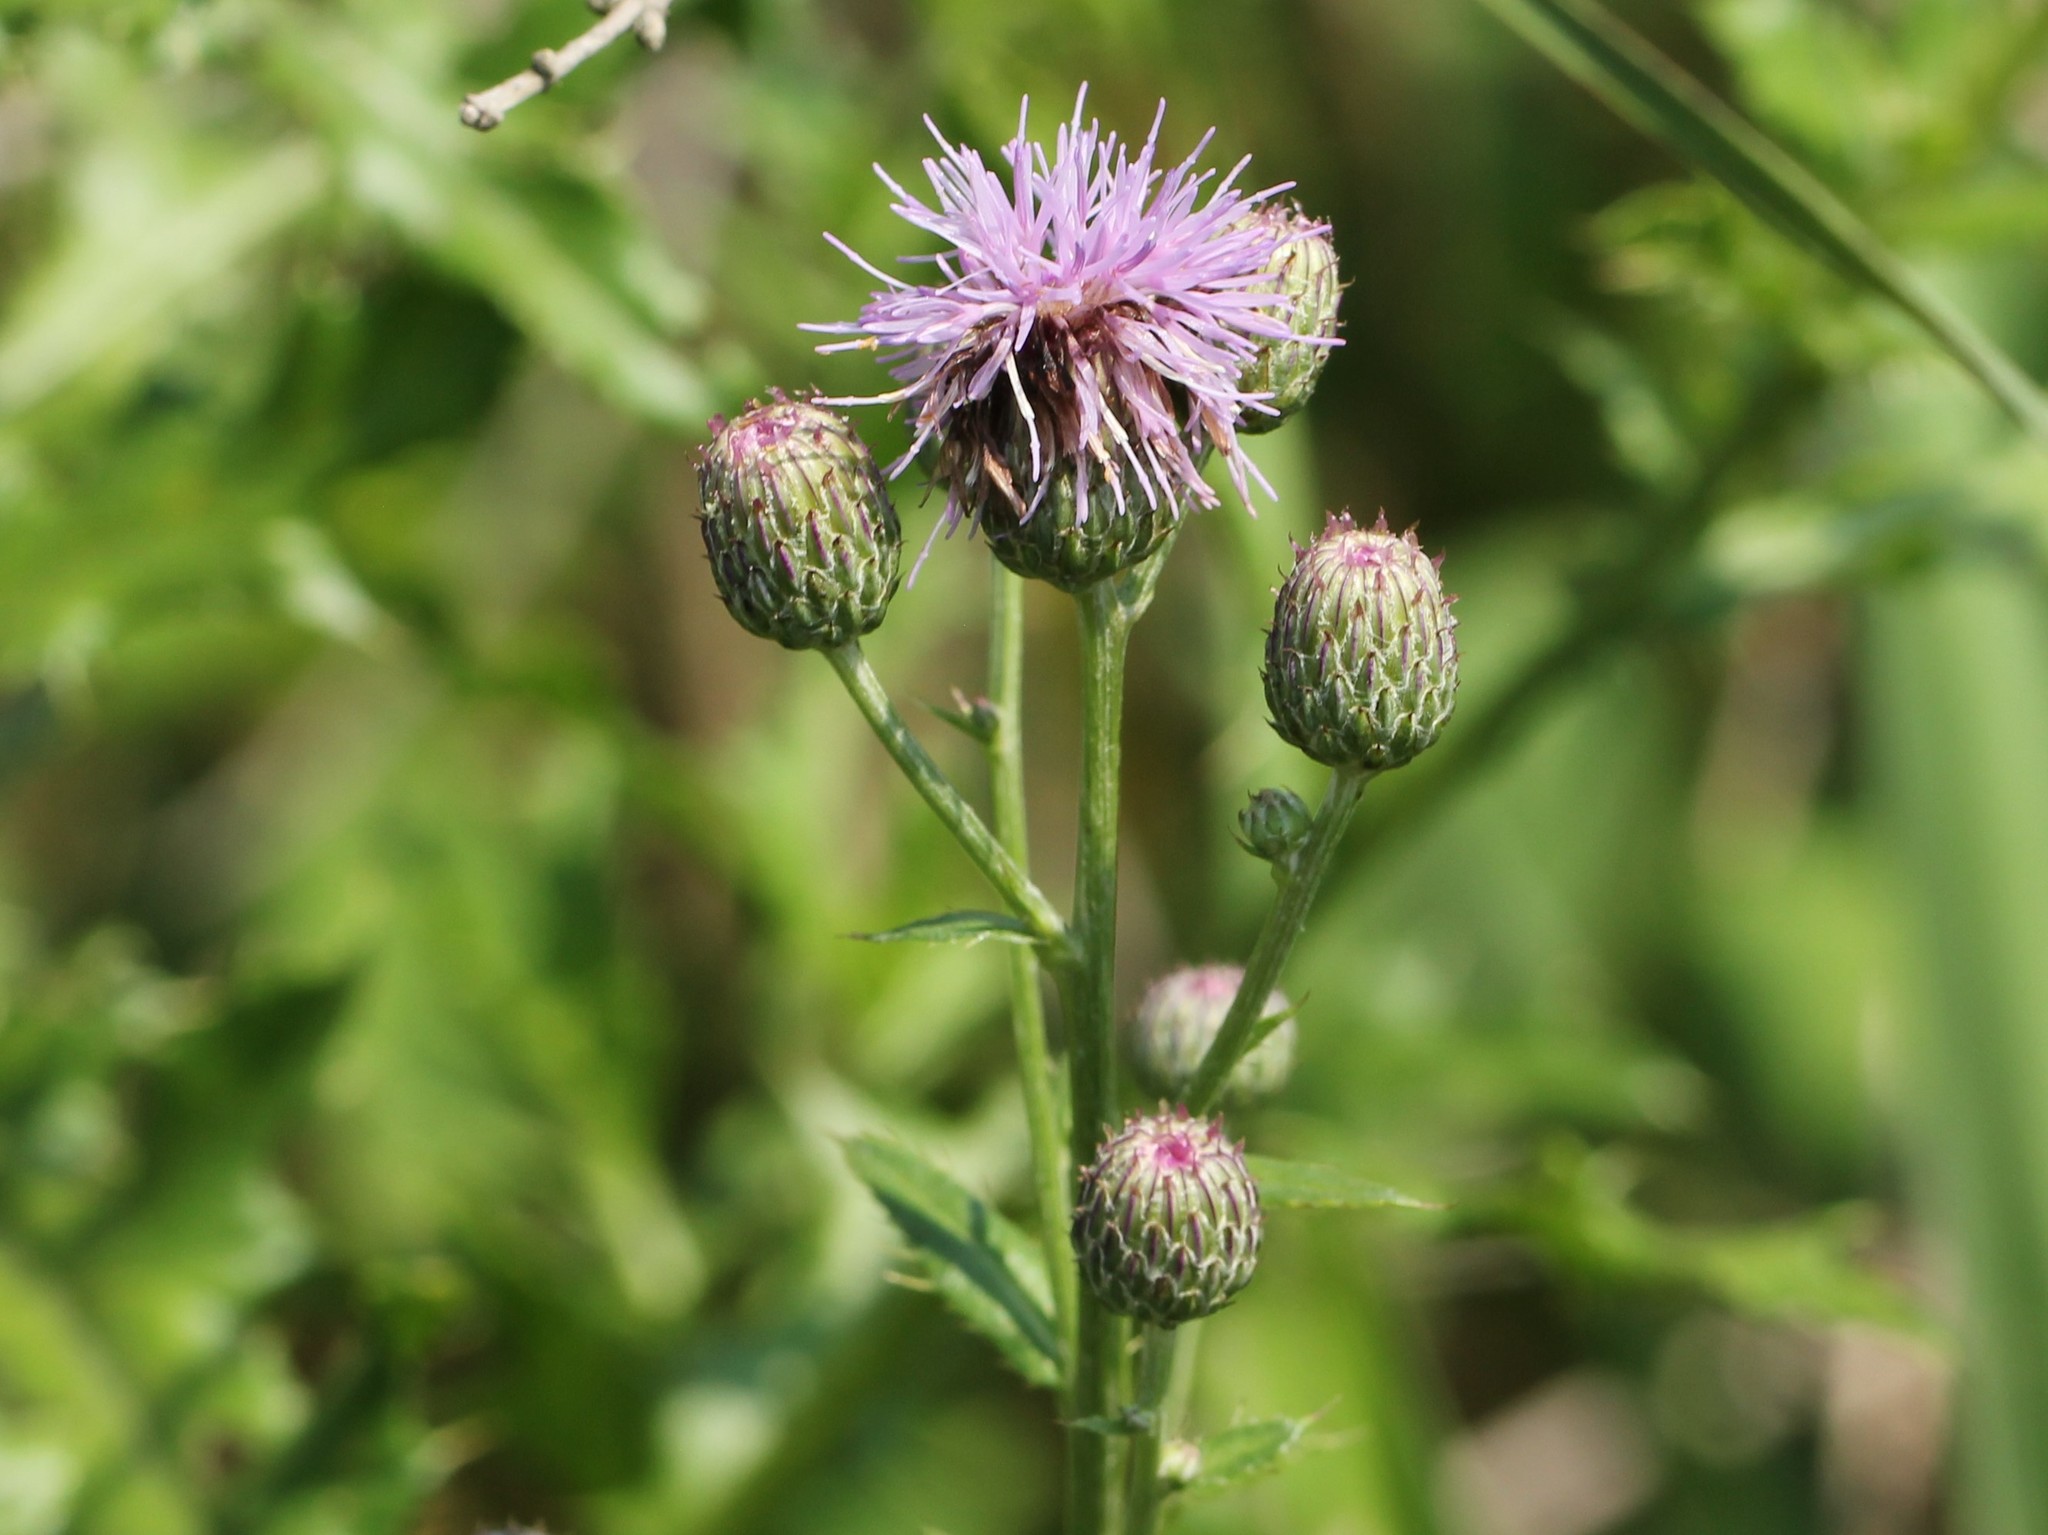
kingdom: Plantae
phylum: Tracheophyta
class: Magnoliopsida
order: Asterales
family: Asteraceae
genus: Cirsium
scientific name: Cirsium arvense
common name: Creeping thistle
